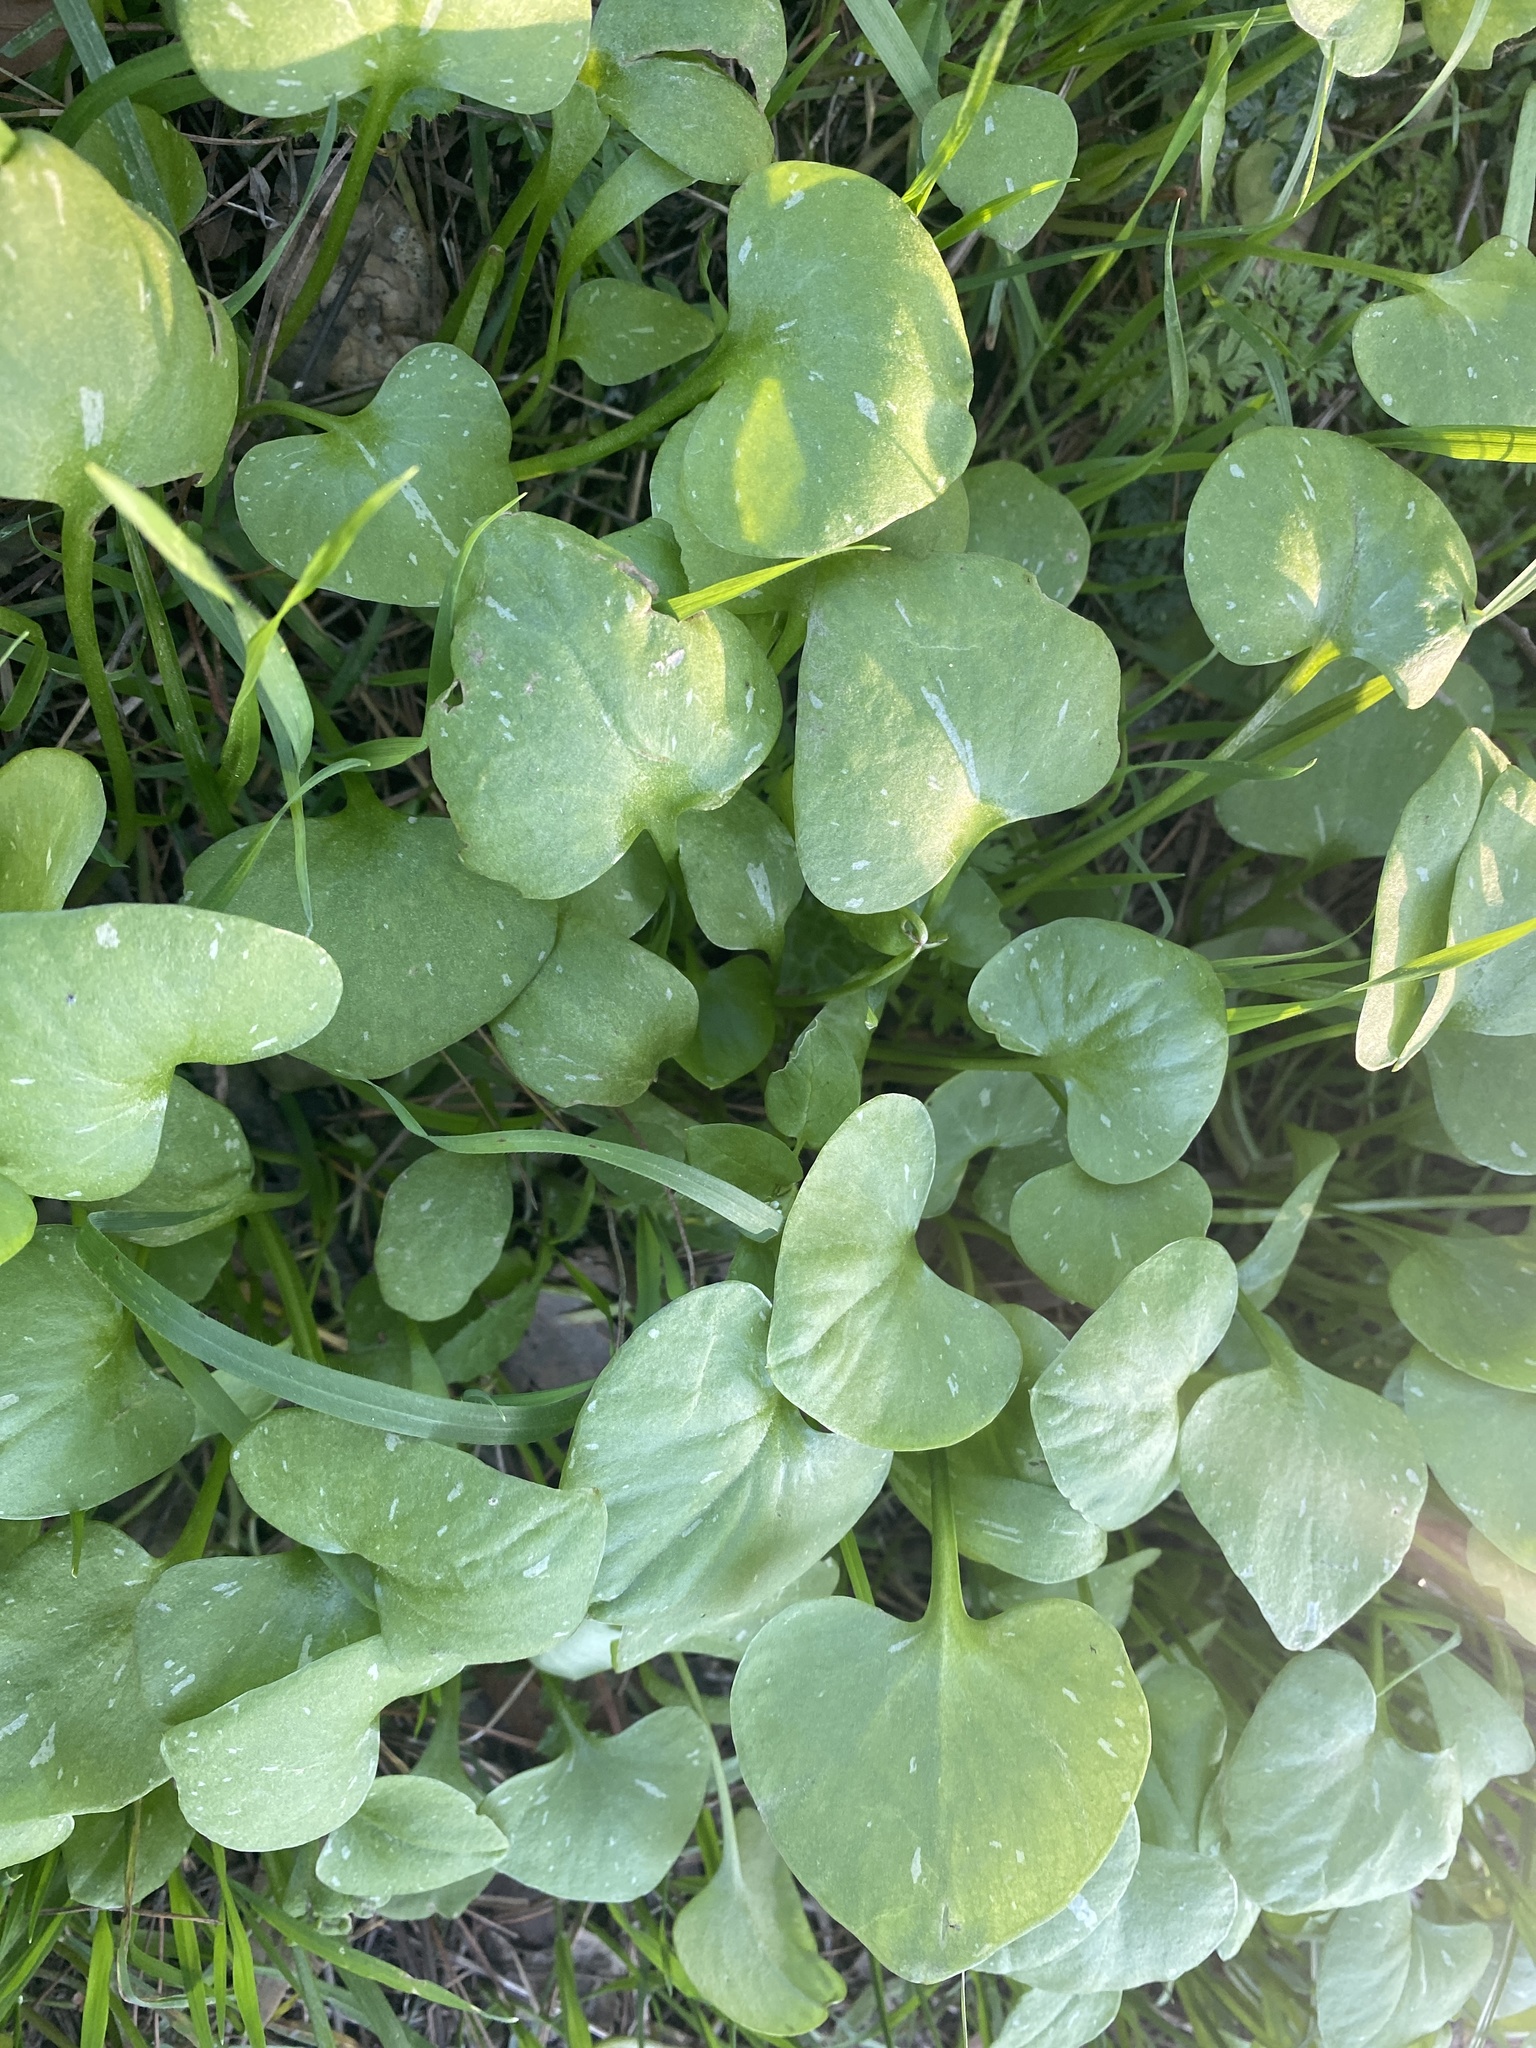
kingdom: Plantae
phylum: Tracheophyta
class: Magnoliopsida
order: Caryophyllales
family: Montiaceae
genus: Claytonia
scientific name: Claytonia perfoliata
